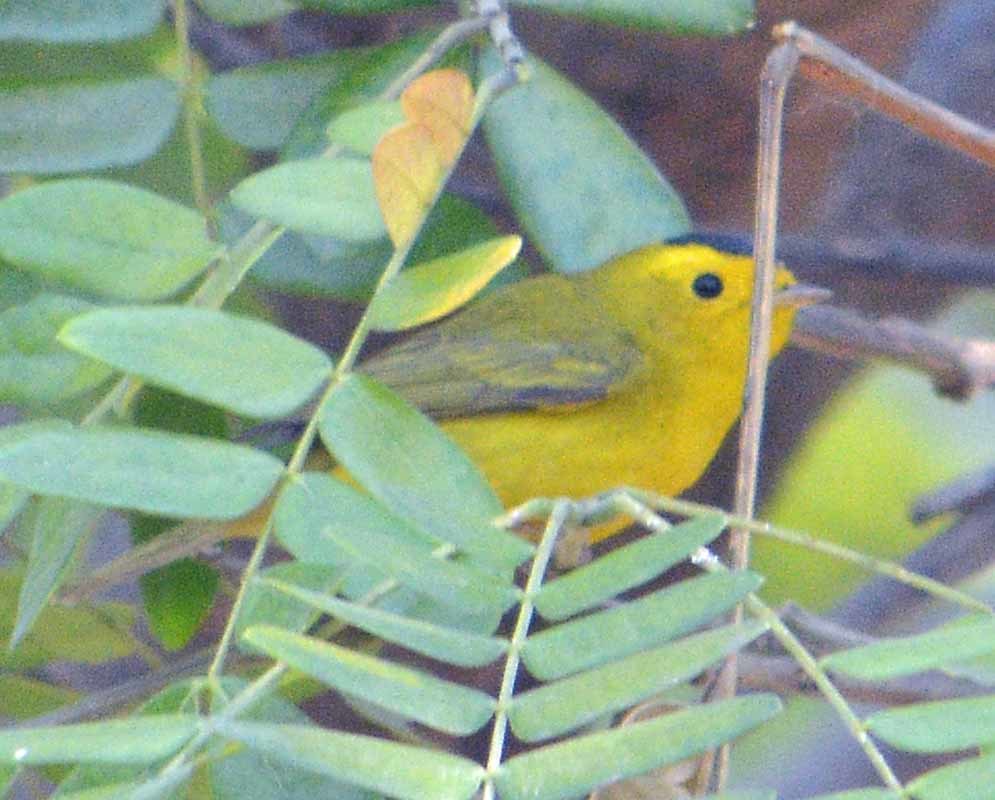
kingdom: Animalia
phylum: Chordata
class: Aves
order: Passeriformes
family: Parulidae
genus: Cardellina
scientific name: Cardellina pusilla
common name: Wilson's warbler
